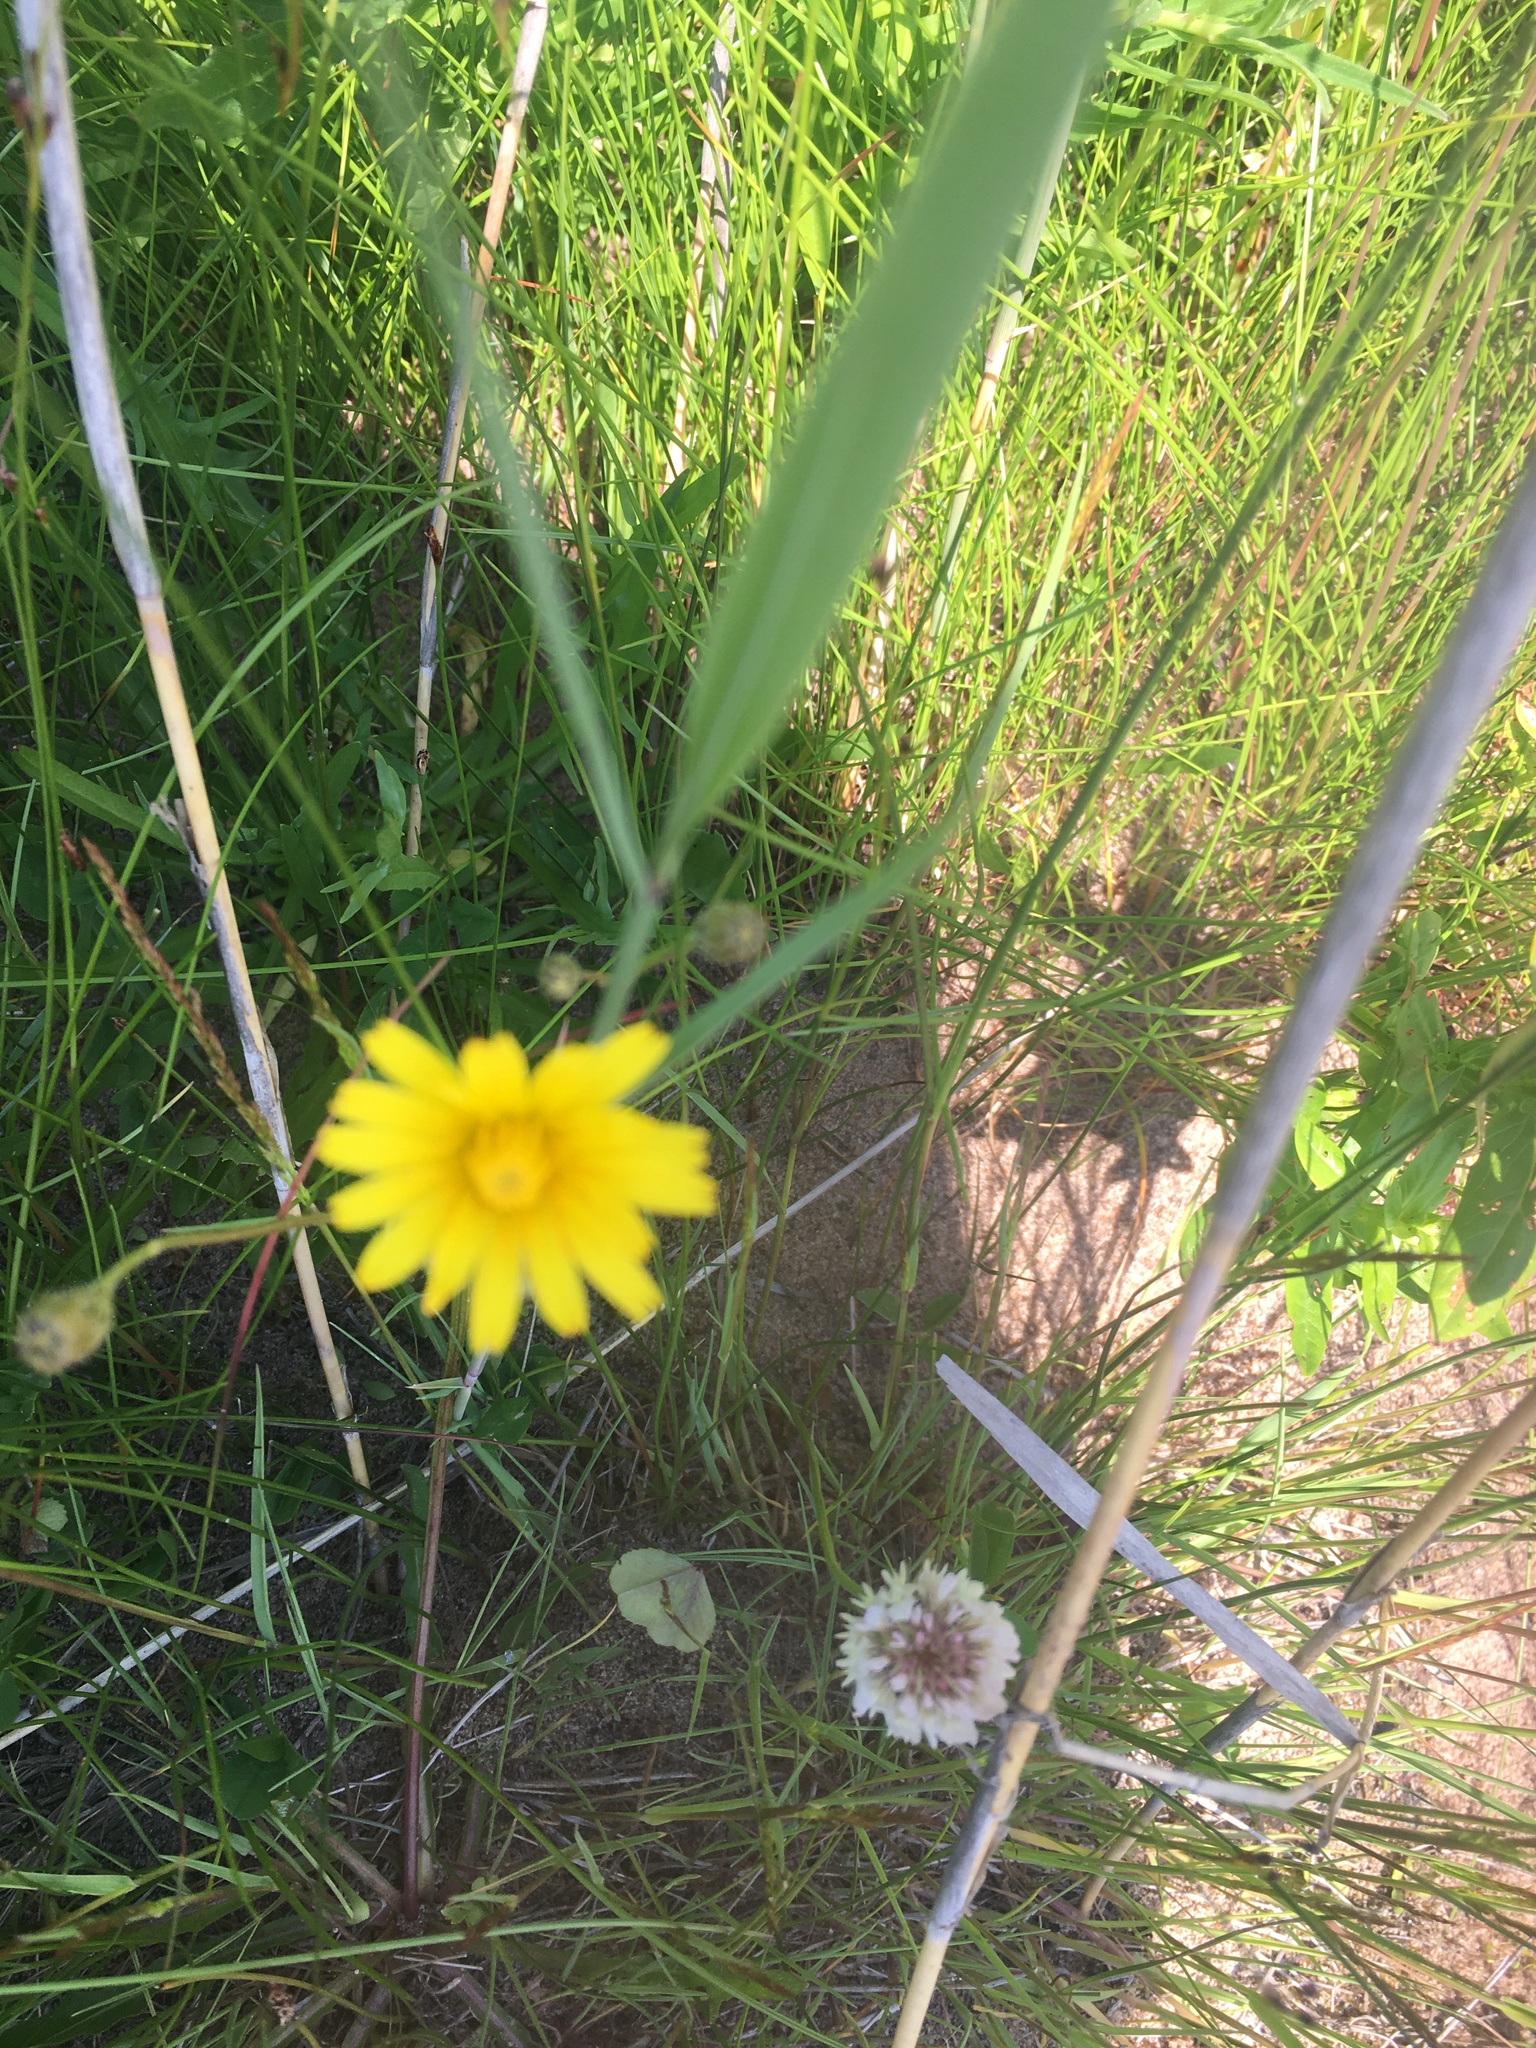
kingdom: Plantae
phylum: Tracheophyta
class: Magnoliopsida
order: Asterales
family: Asteraceae
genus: Scorzoneroides
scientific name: Scorzoneroides autumnalis
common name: Autumn hawkbit
